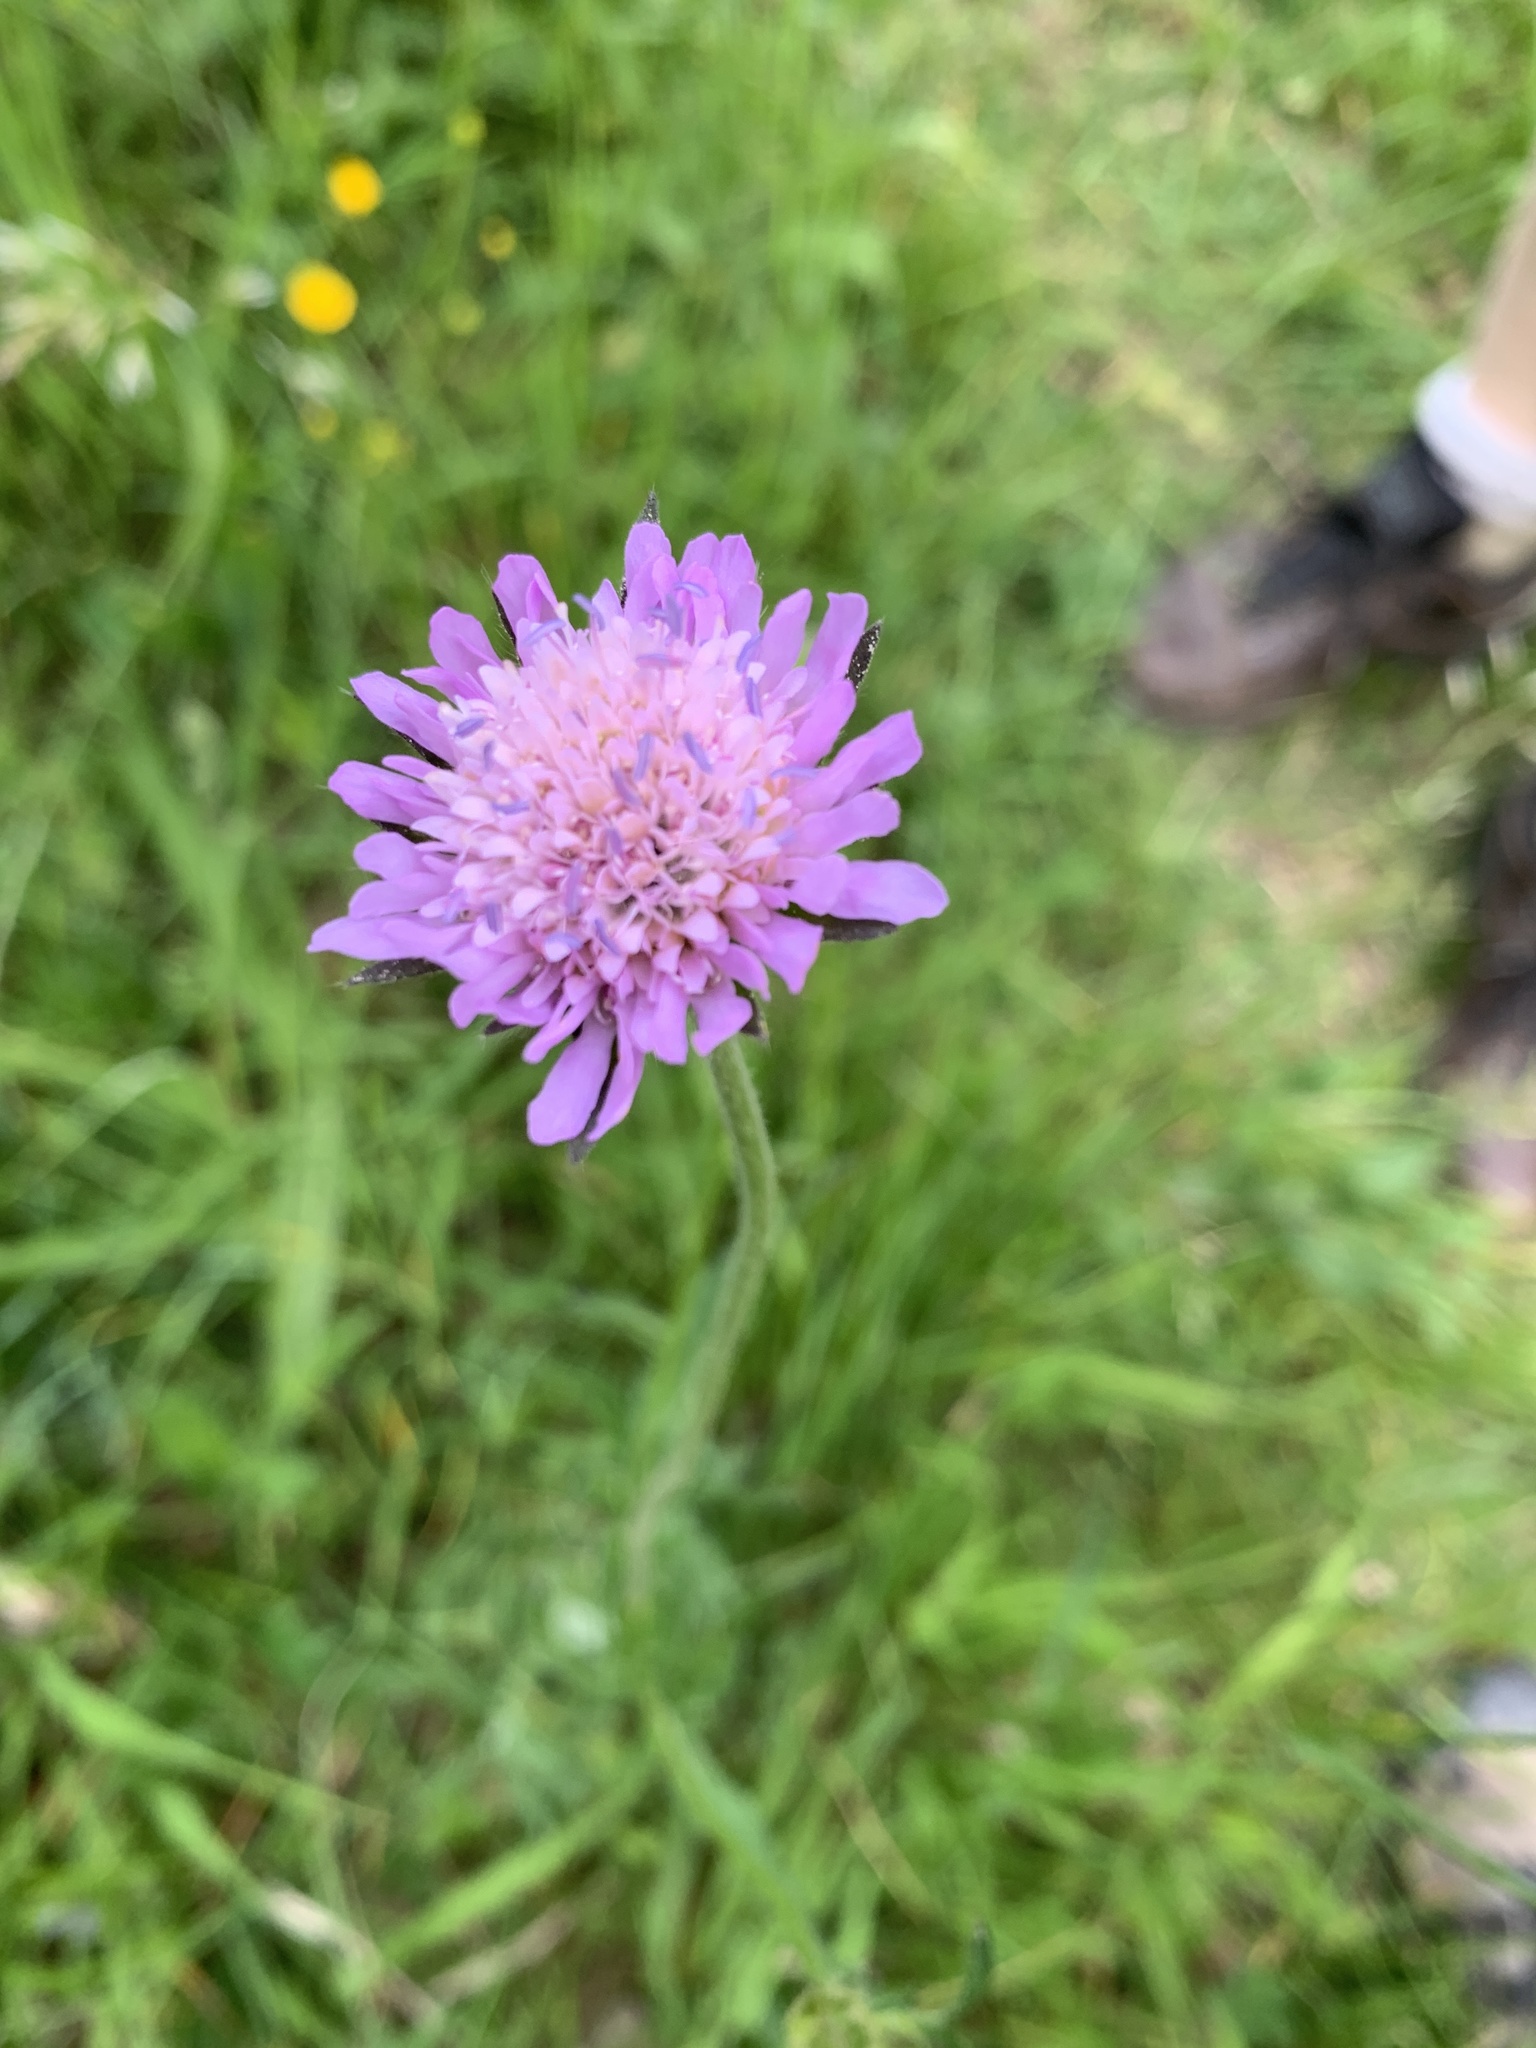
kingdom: Plantae
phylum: Tracheophyta
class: Magnoliopsida
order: Dipsacales
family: Caprifoliaceae
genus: Knautia
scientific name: Knautia arvensis
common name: Field scabiosa
